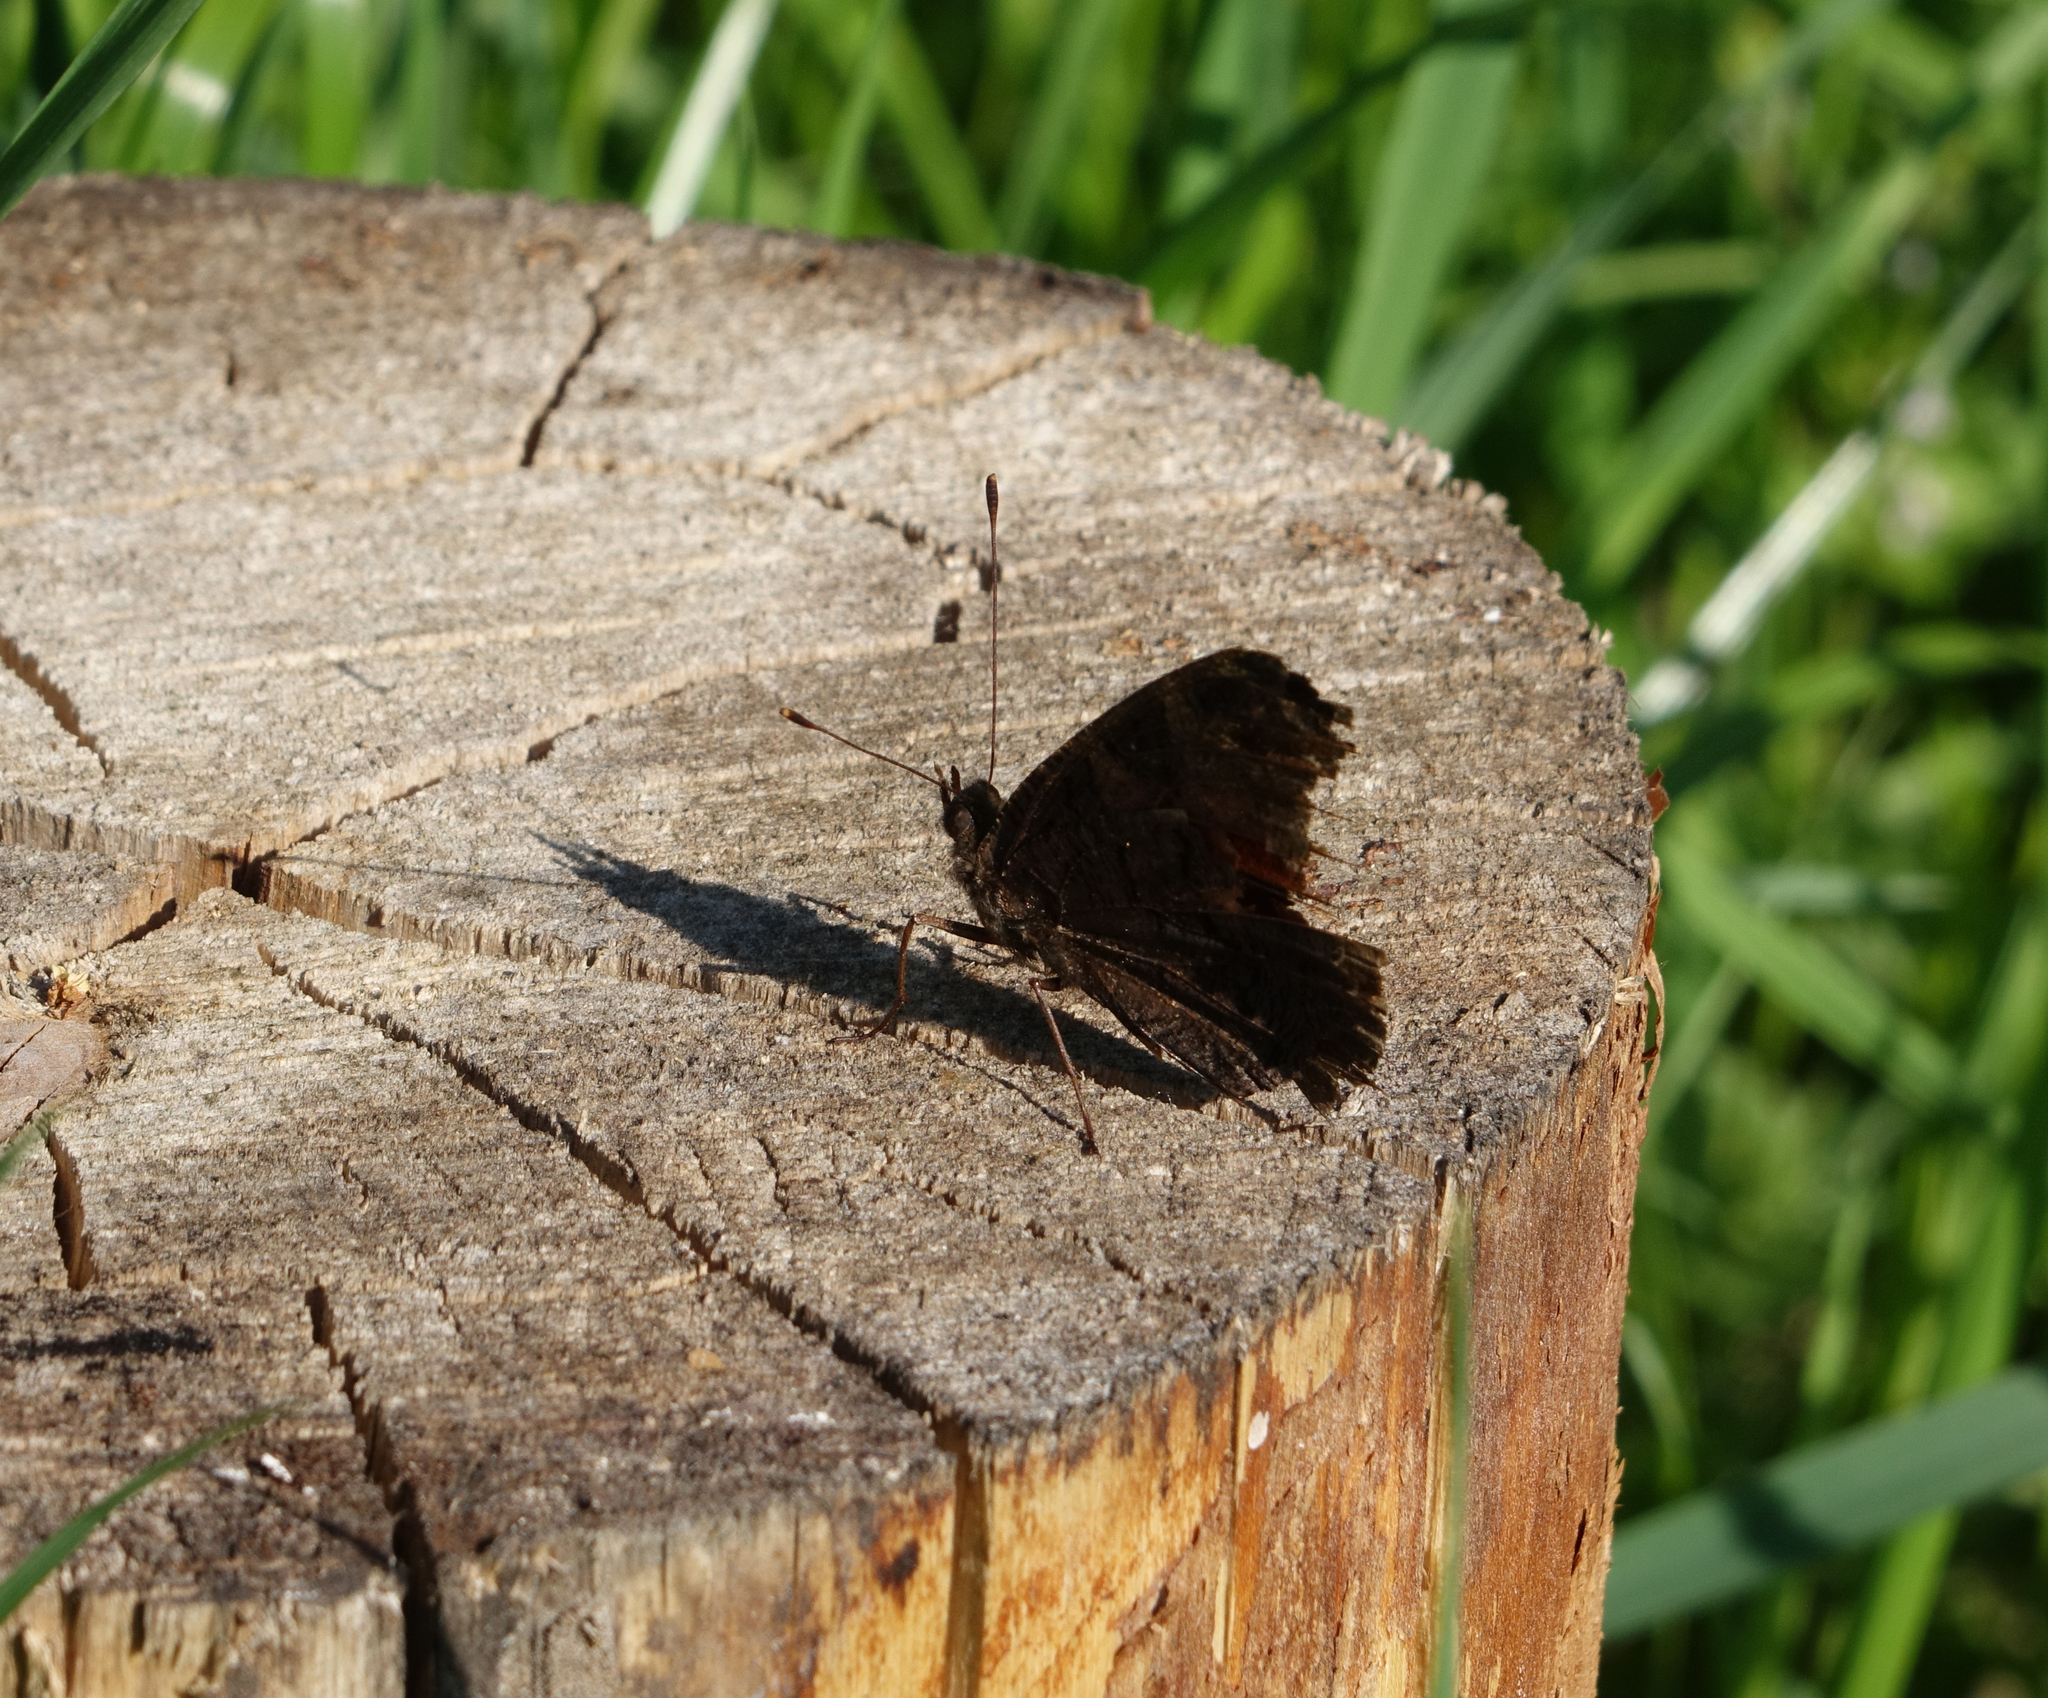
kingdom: Animalia
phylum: Arthropoda
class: Insecta
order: Lepidoptera
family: Nymphalidae
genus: Aglais
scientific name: Aglais io
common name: Peacock
